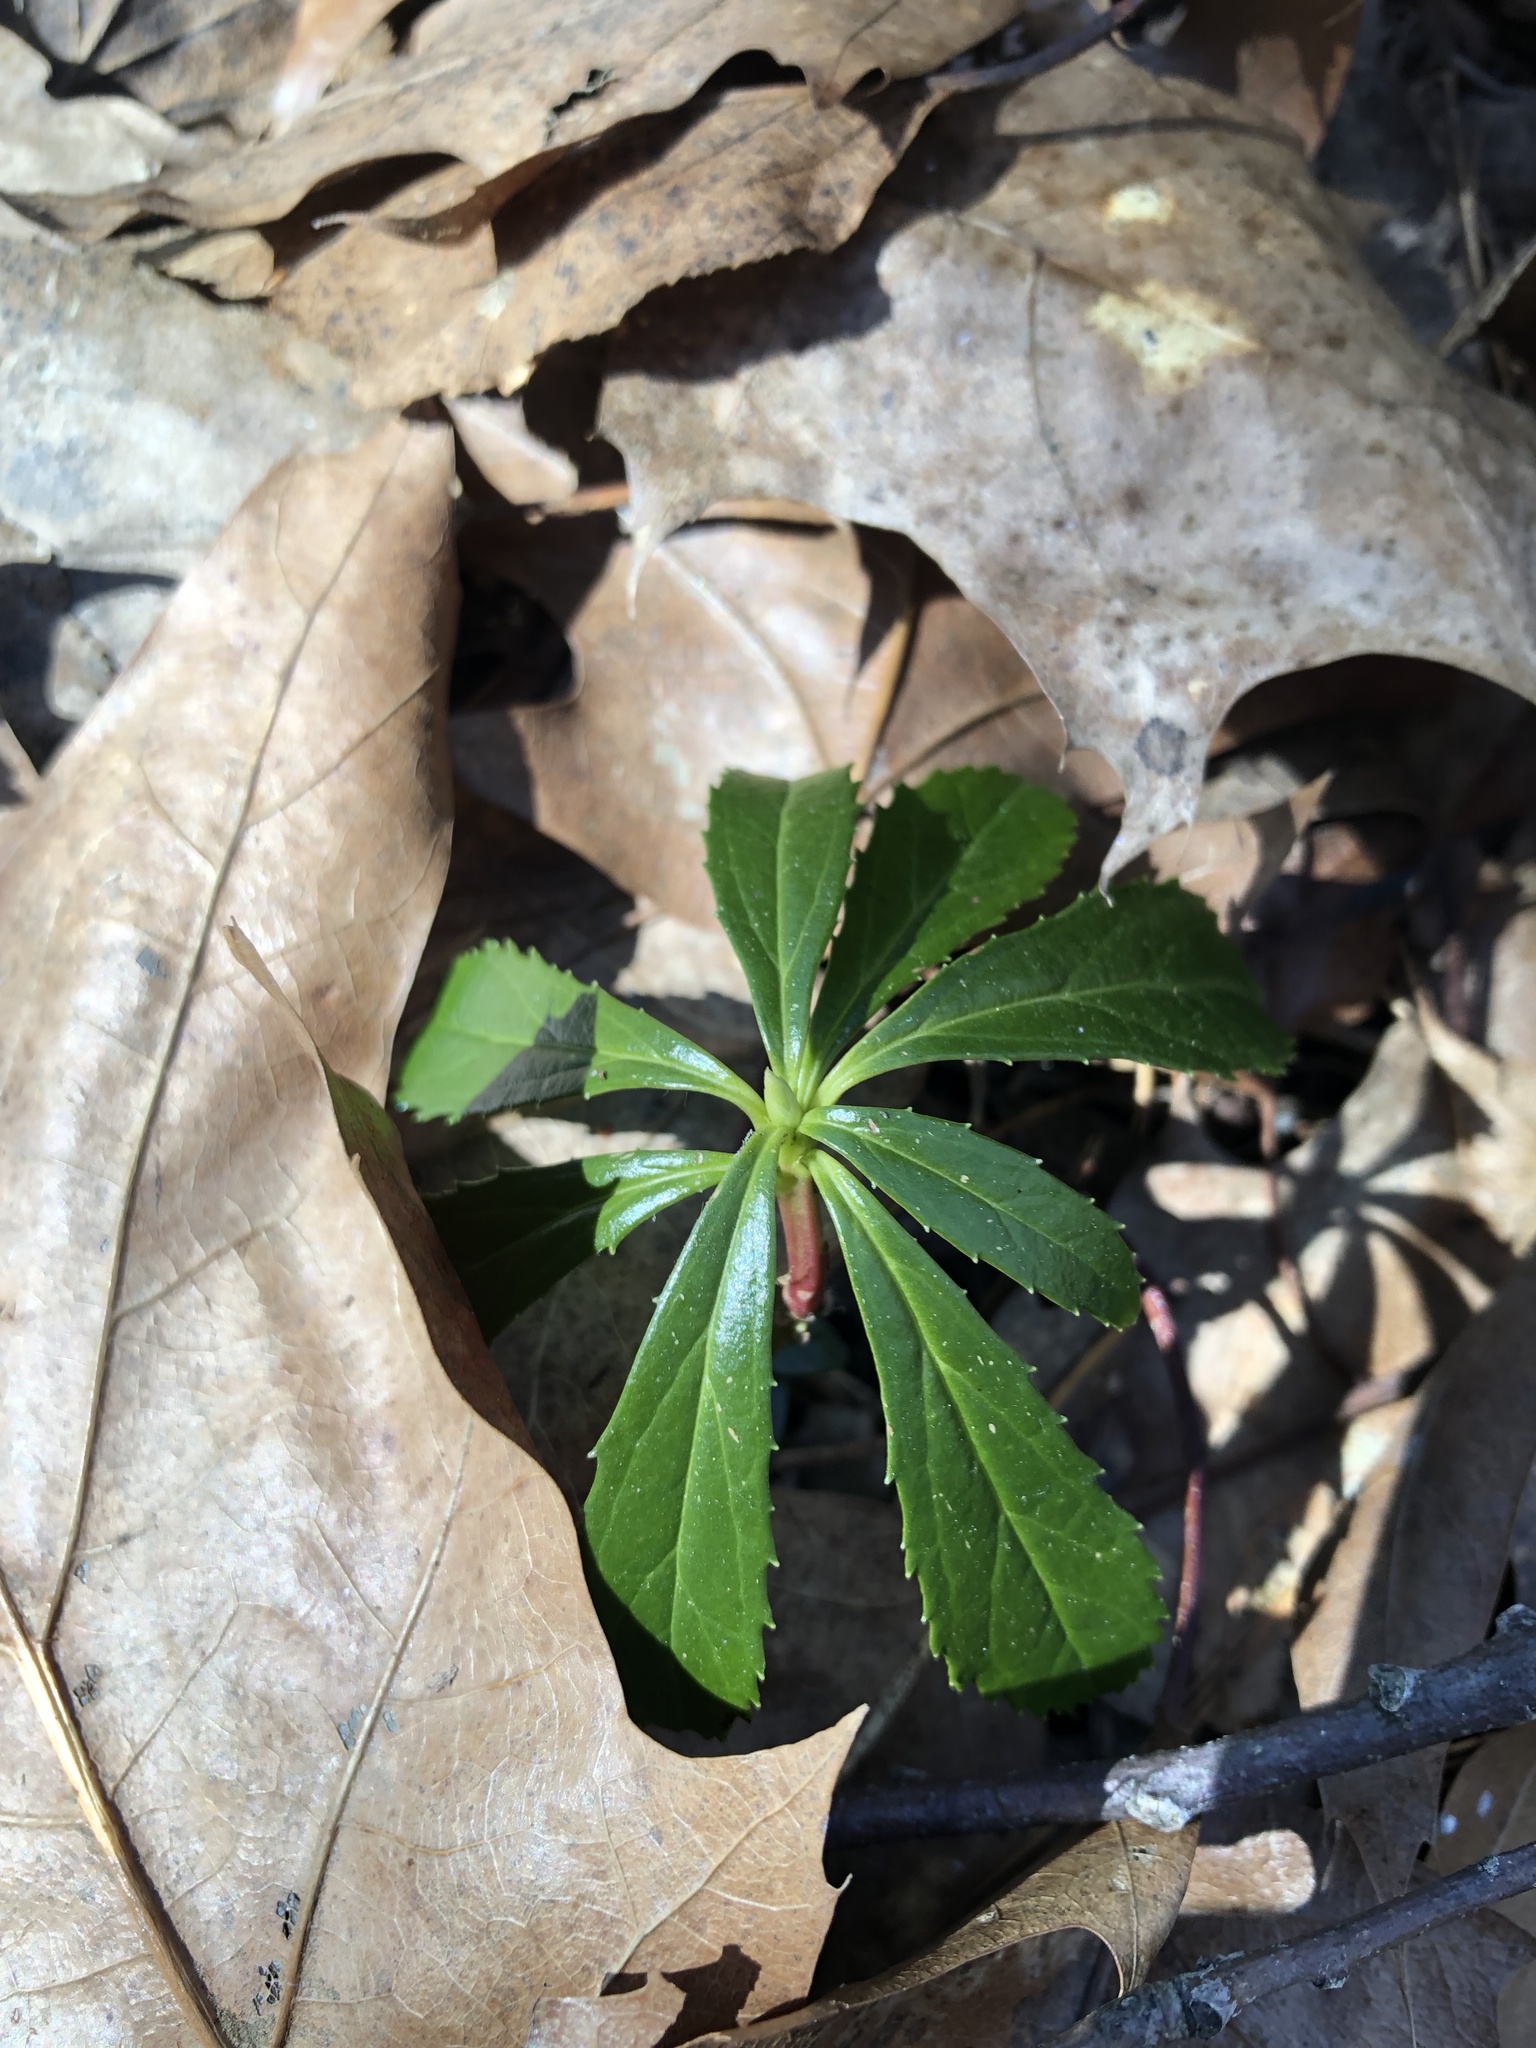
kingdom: Plantae
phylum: Tracheophyta
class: Magnoliopsida
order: Ericales
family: Ericaceae
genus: Chimaphila
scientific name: Chimaphila umbellata
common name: Pipsissewa
